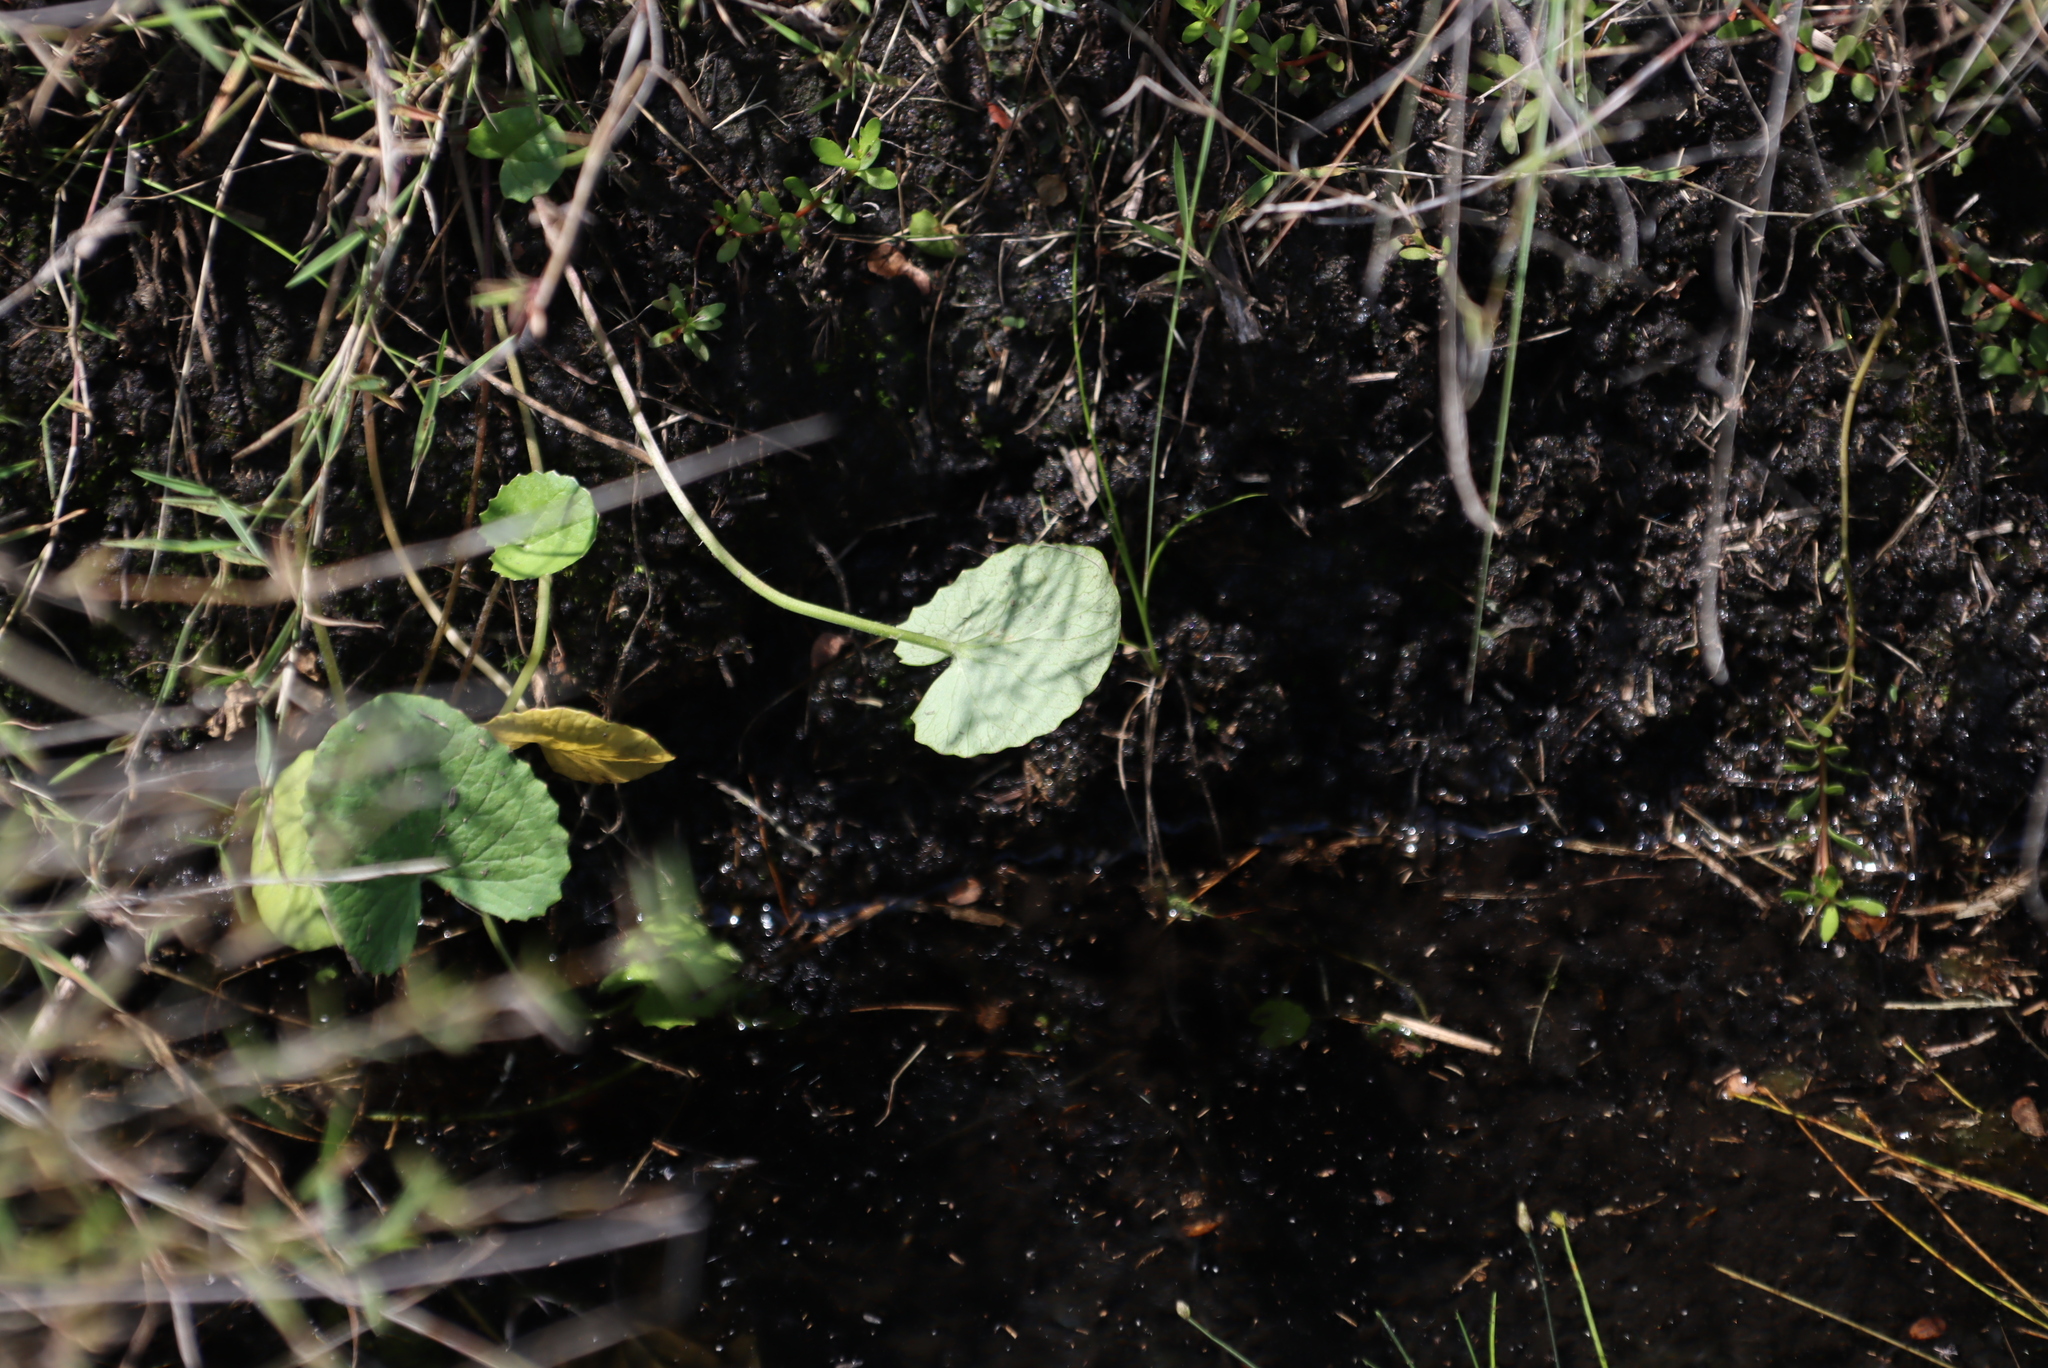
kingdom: Plantae
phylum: Tracheophyta
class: Magnoliopsida
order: Apiales
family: Apiaceae
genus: Centella
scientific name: Centella asiatica
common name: Spadeleaf
